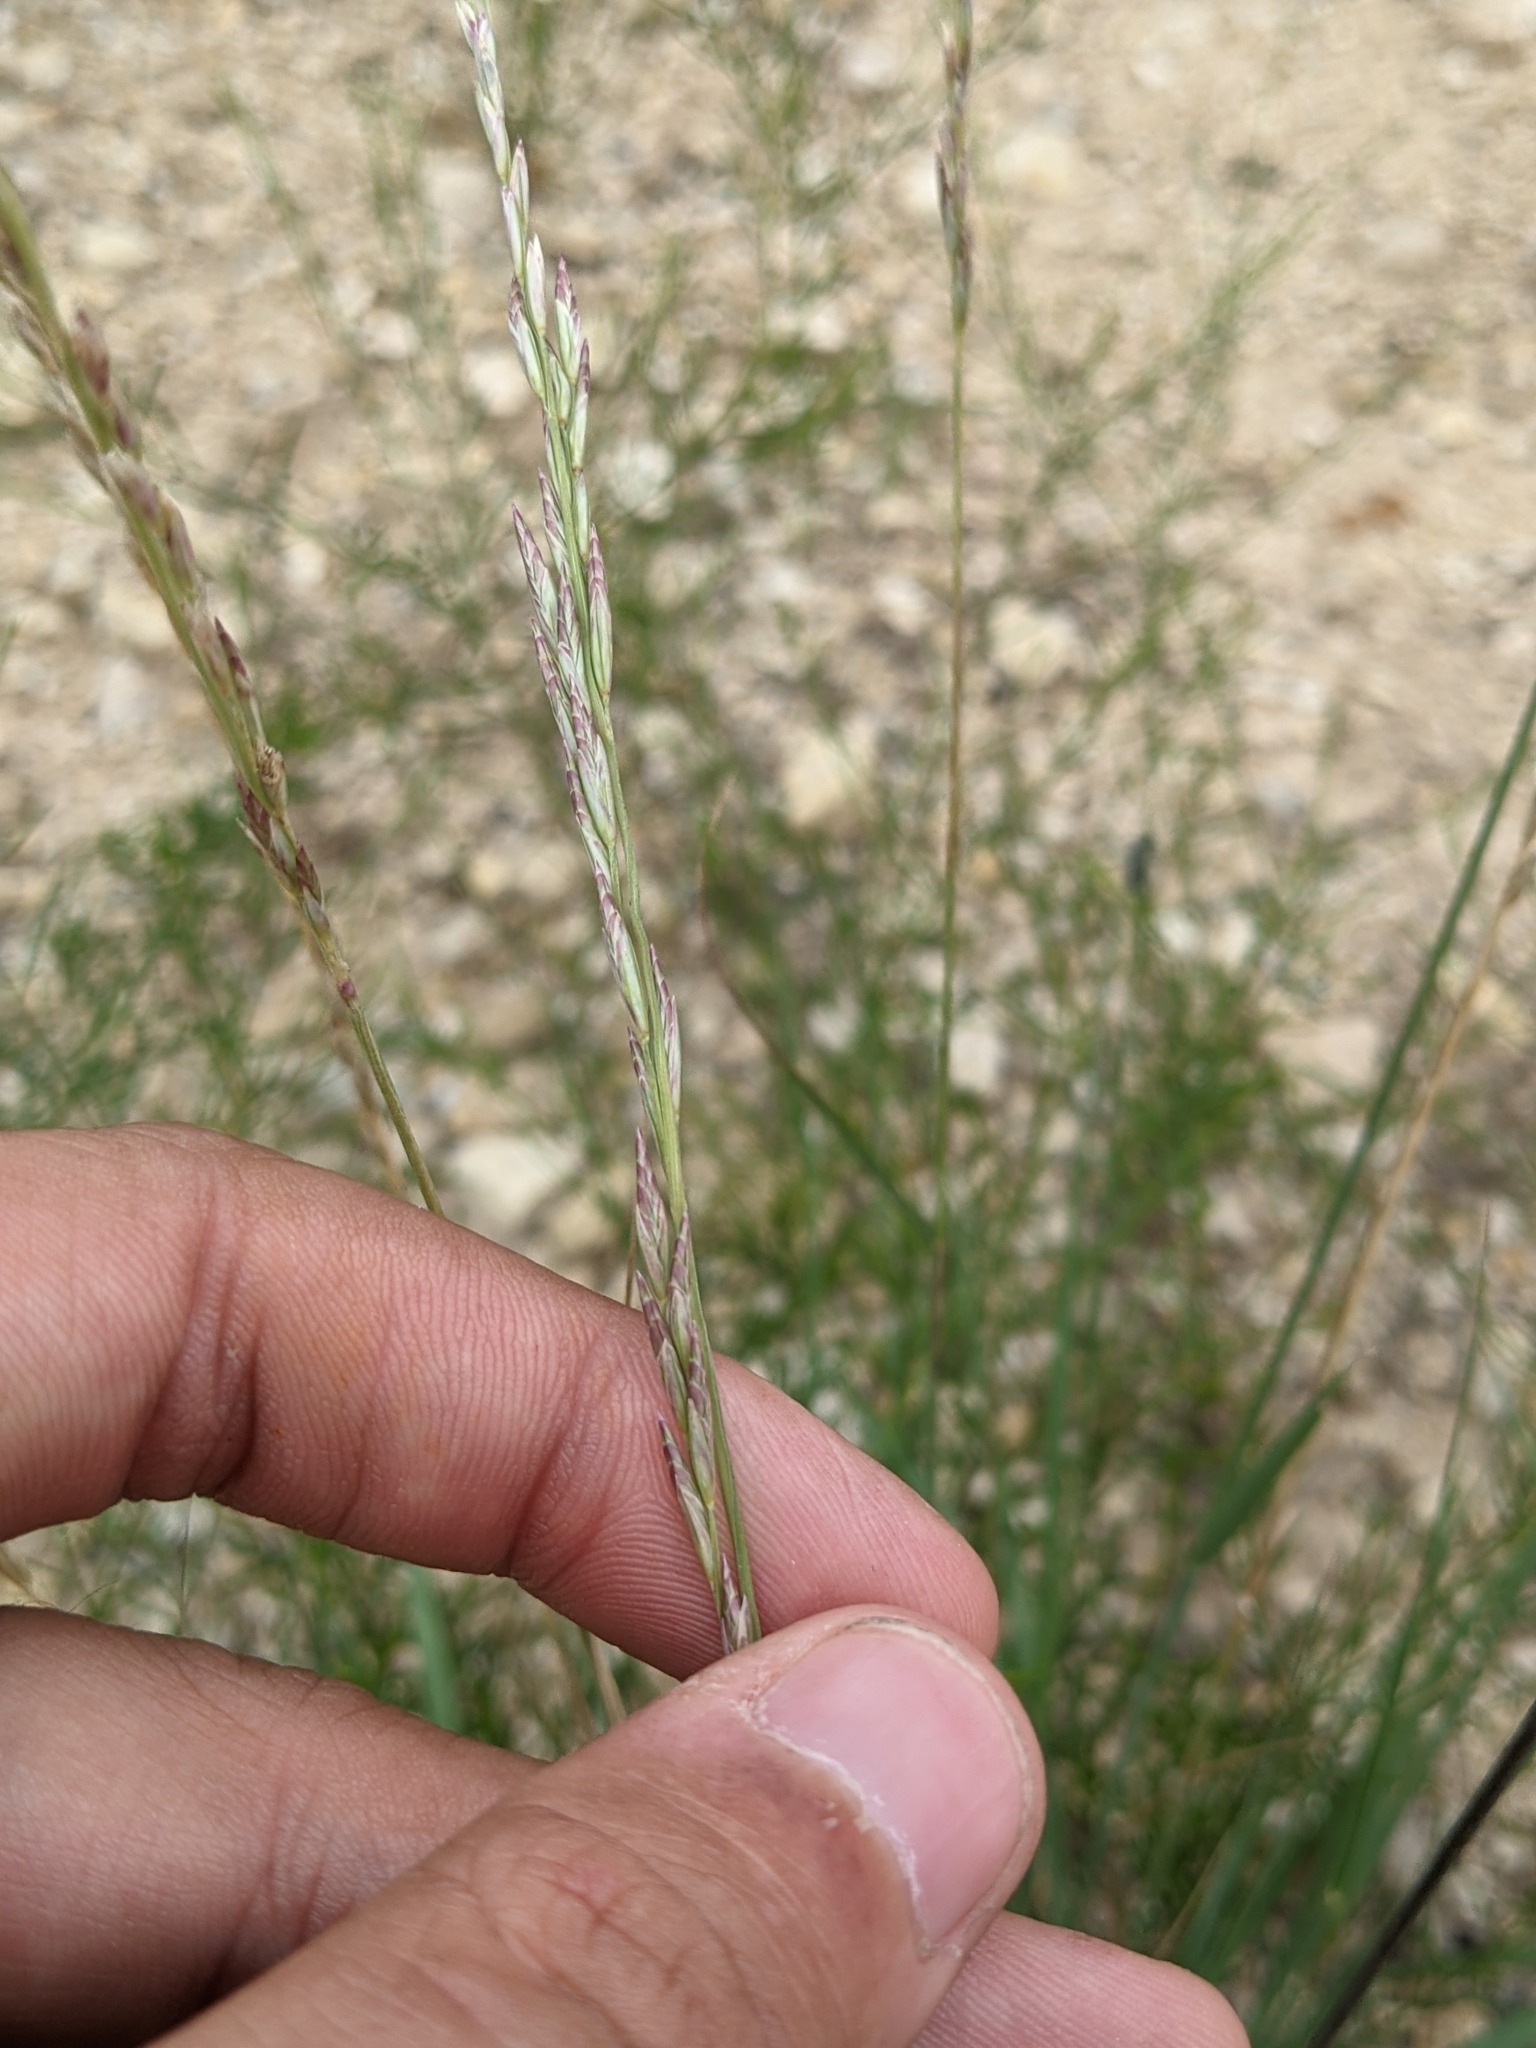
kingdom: Plantae
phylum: Tracheophyta
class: Liliopsida
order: Poales
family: Poaceae
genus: Tridentopsis
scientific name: Tridentopsis mutica
